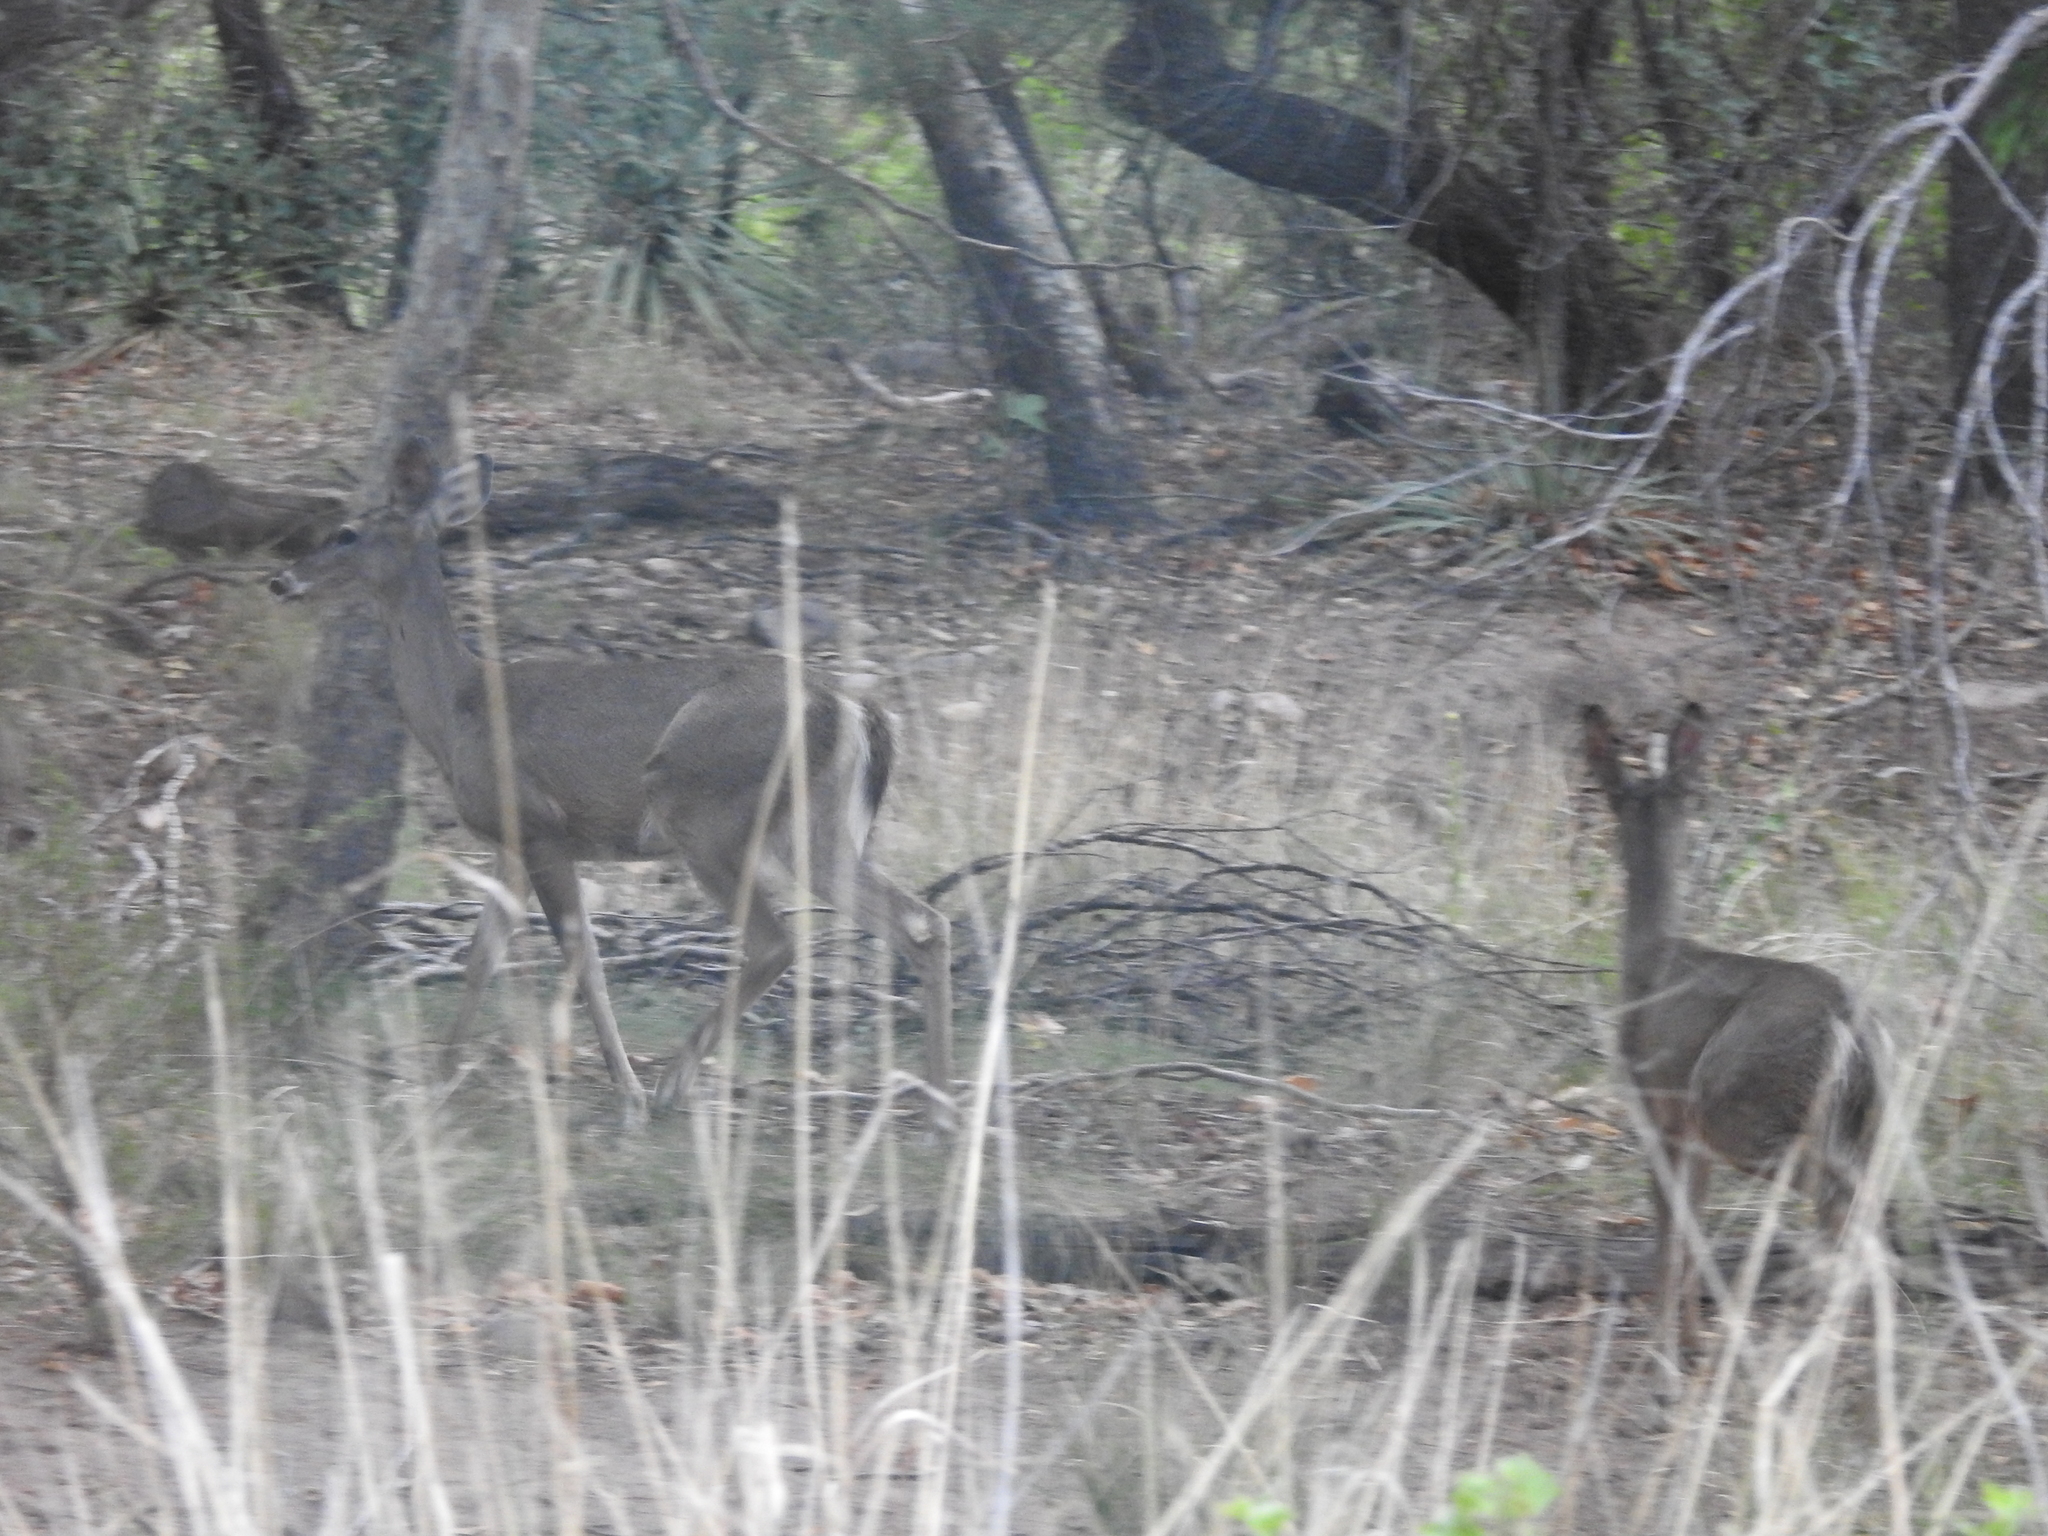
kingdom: Animalia
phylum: Chordata
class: Mammalia
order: Artiodactyla
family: Cervidae
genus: Odocoileus
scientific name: Odocoileus virginianus
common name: White-tailed deer
